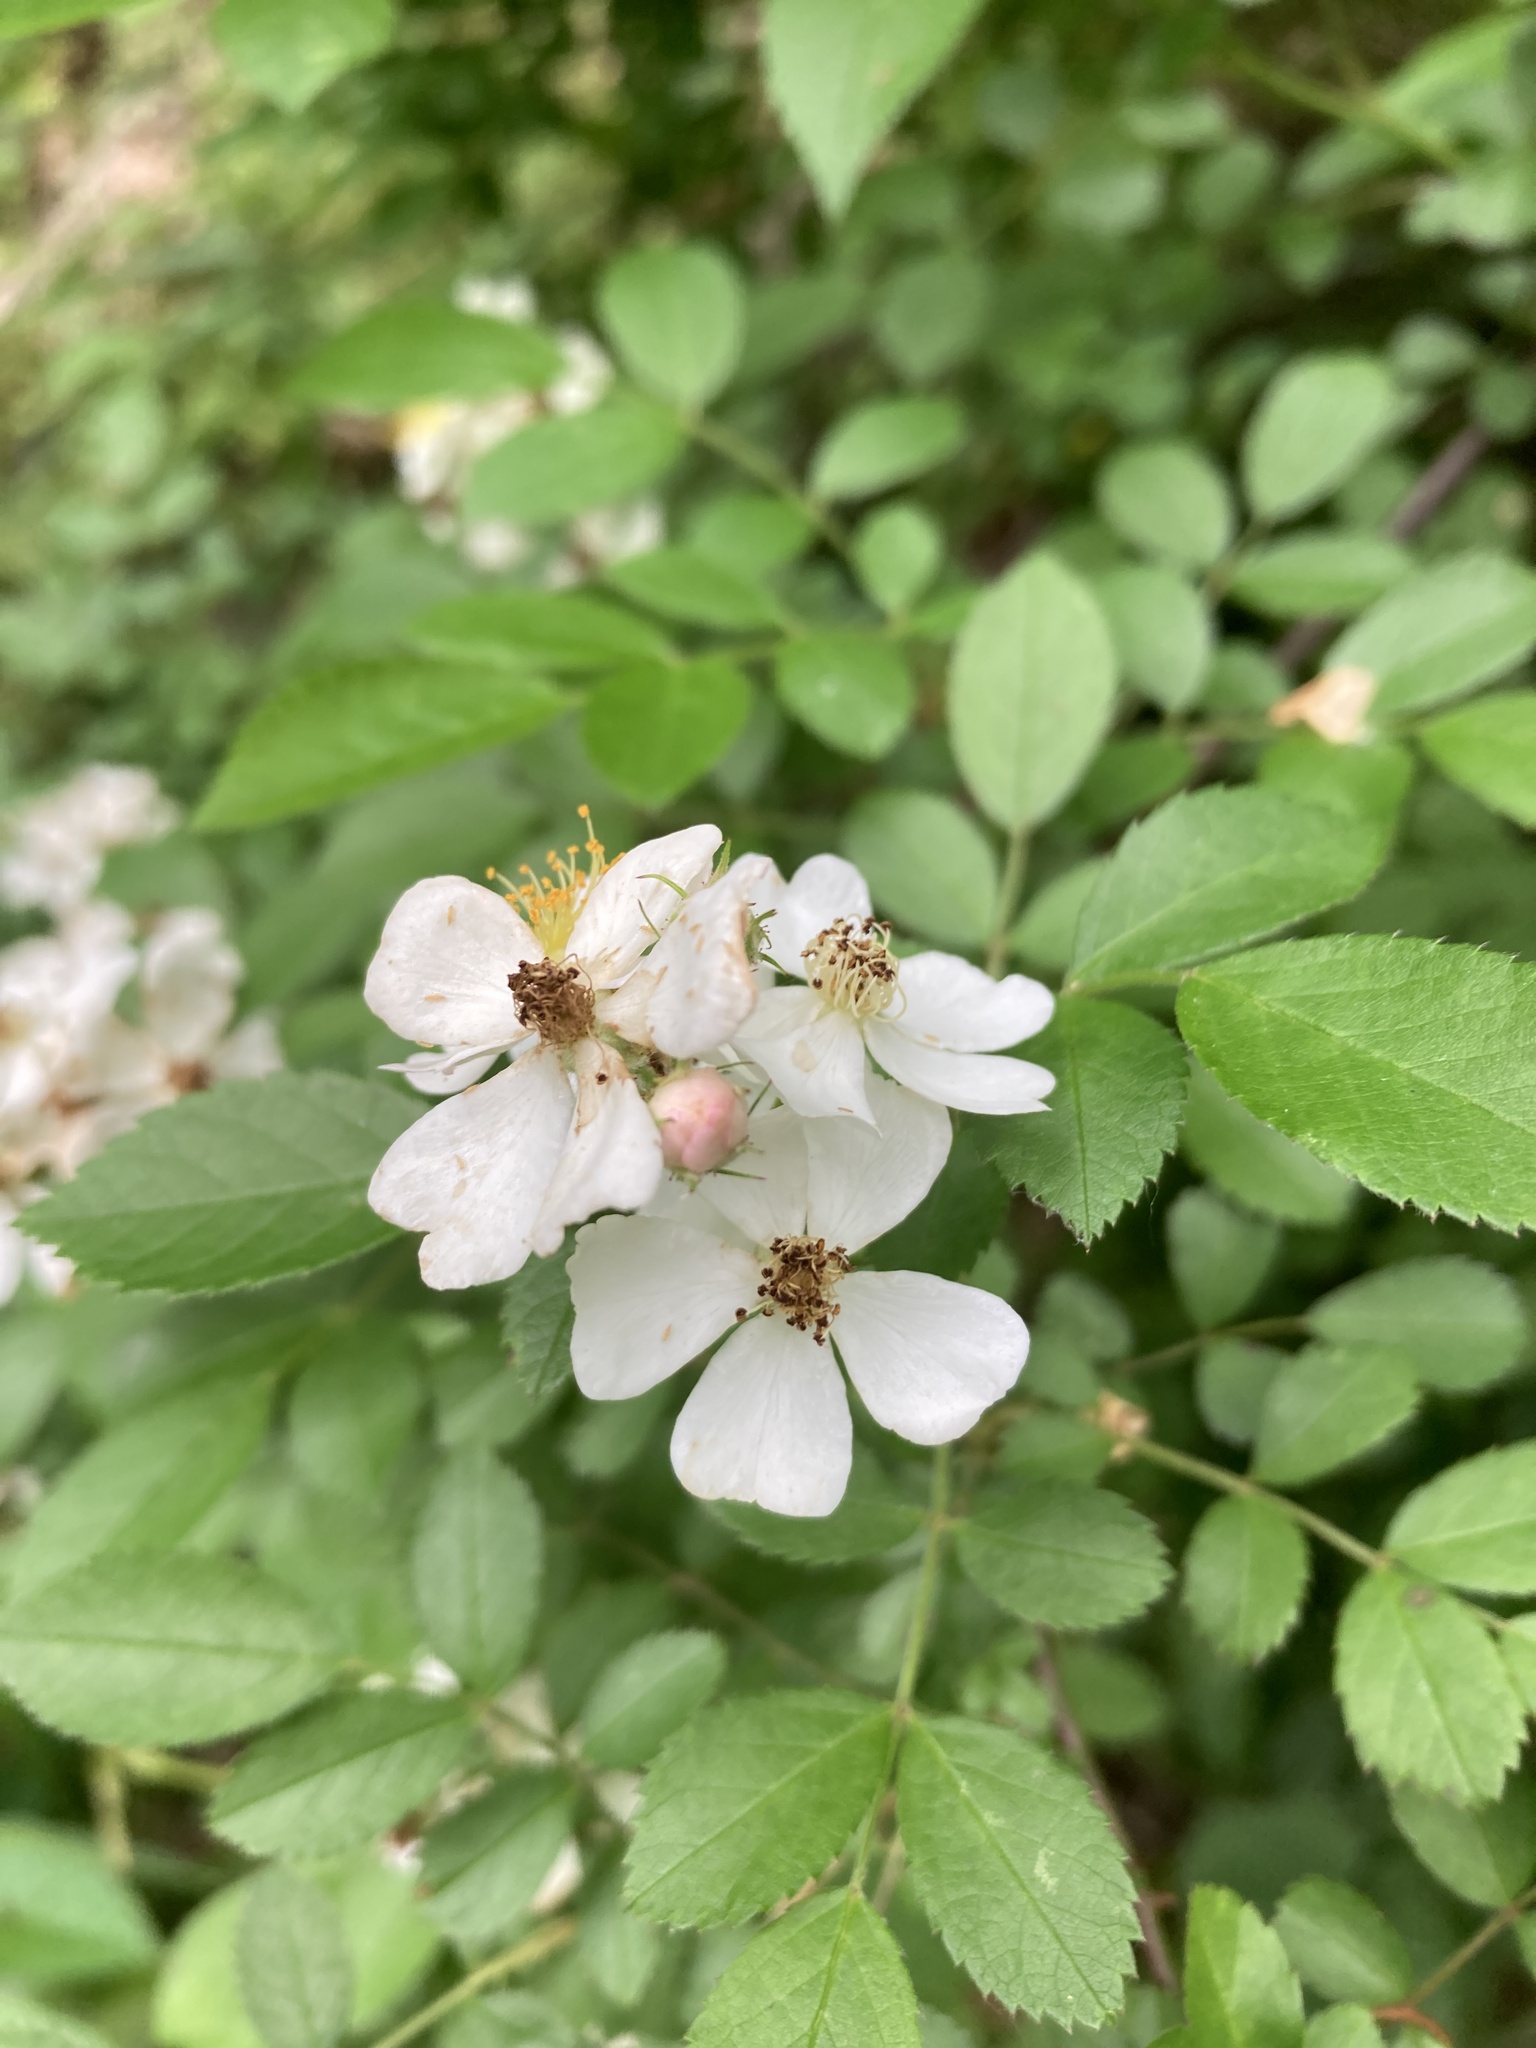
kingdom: Plantae
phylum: Tracheophyta
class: Magnoliopsida
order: Rosales
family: Rosaceae
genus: Rosa
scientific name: Rosa multiflora
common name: Multiflora rose
